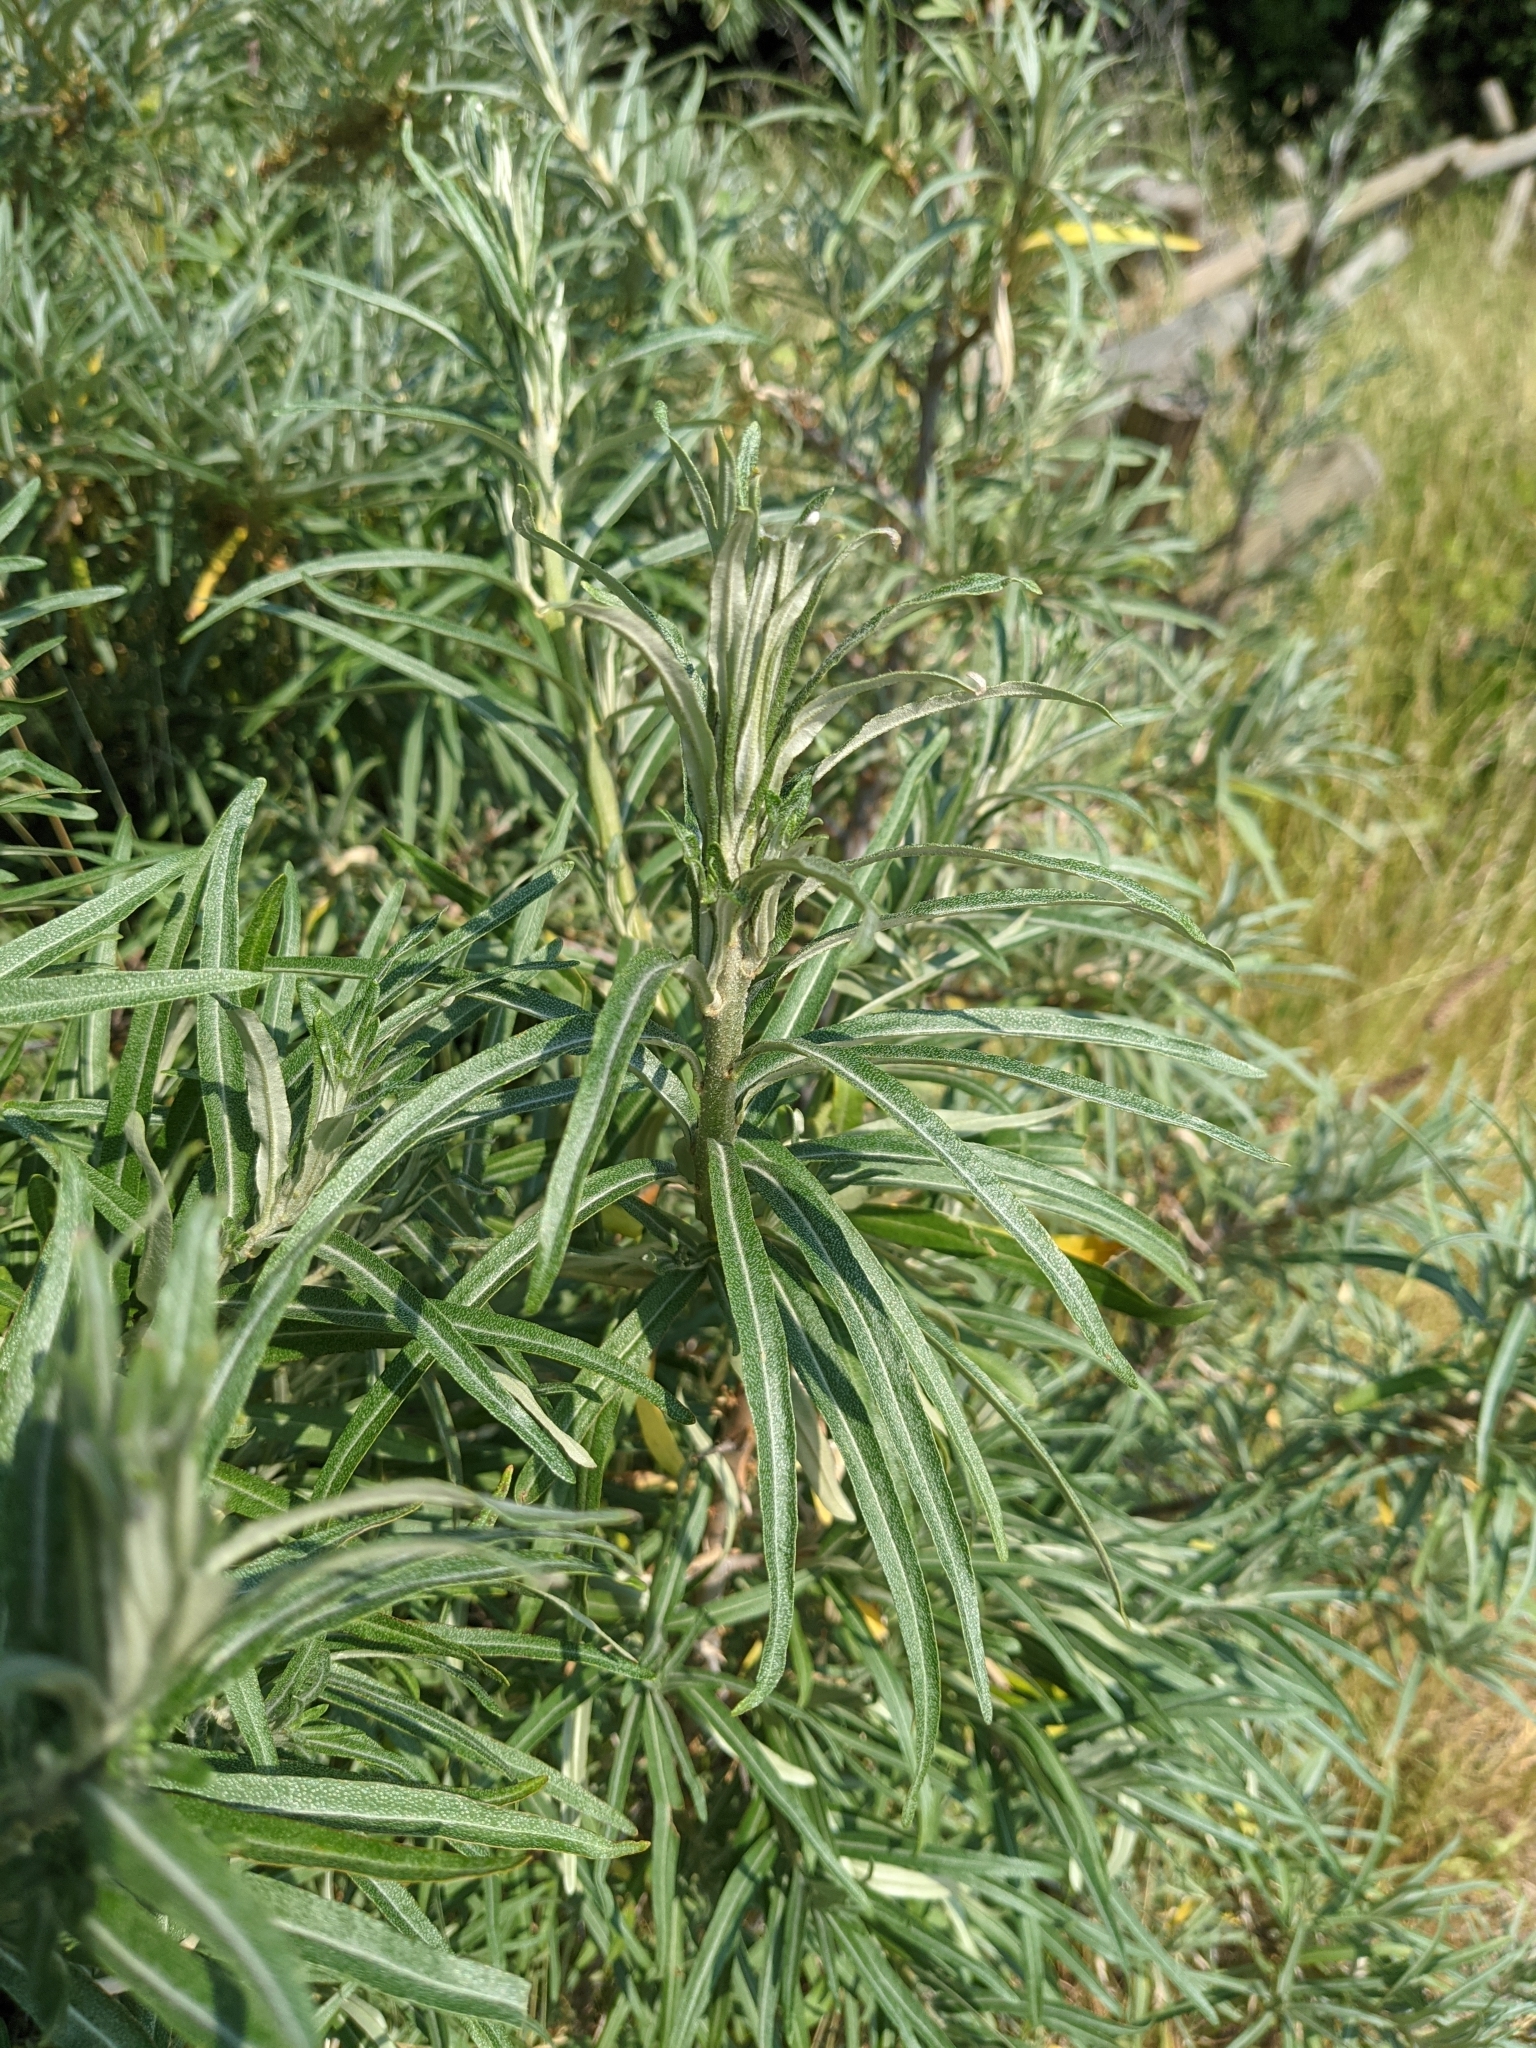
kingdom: Plantae
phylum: Tracheophyta
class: Magnoliopsida
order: Rosales
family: Elaeagnaceae
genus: Hippophae
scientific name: Hippophae rhamnoides
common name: Sea-buckthorn
